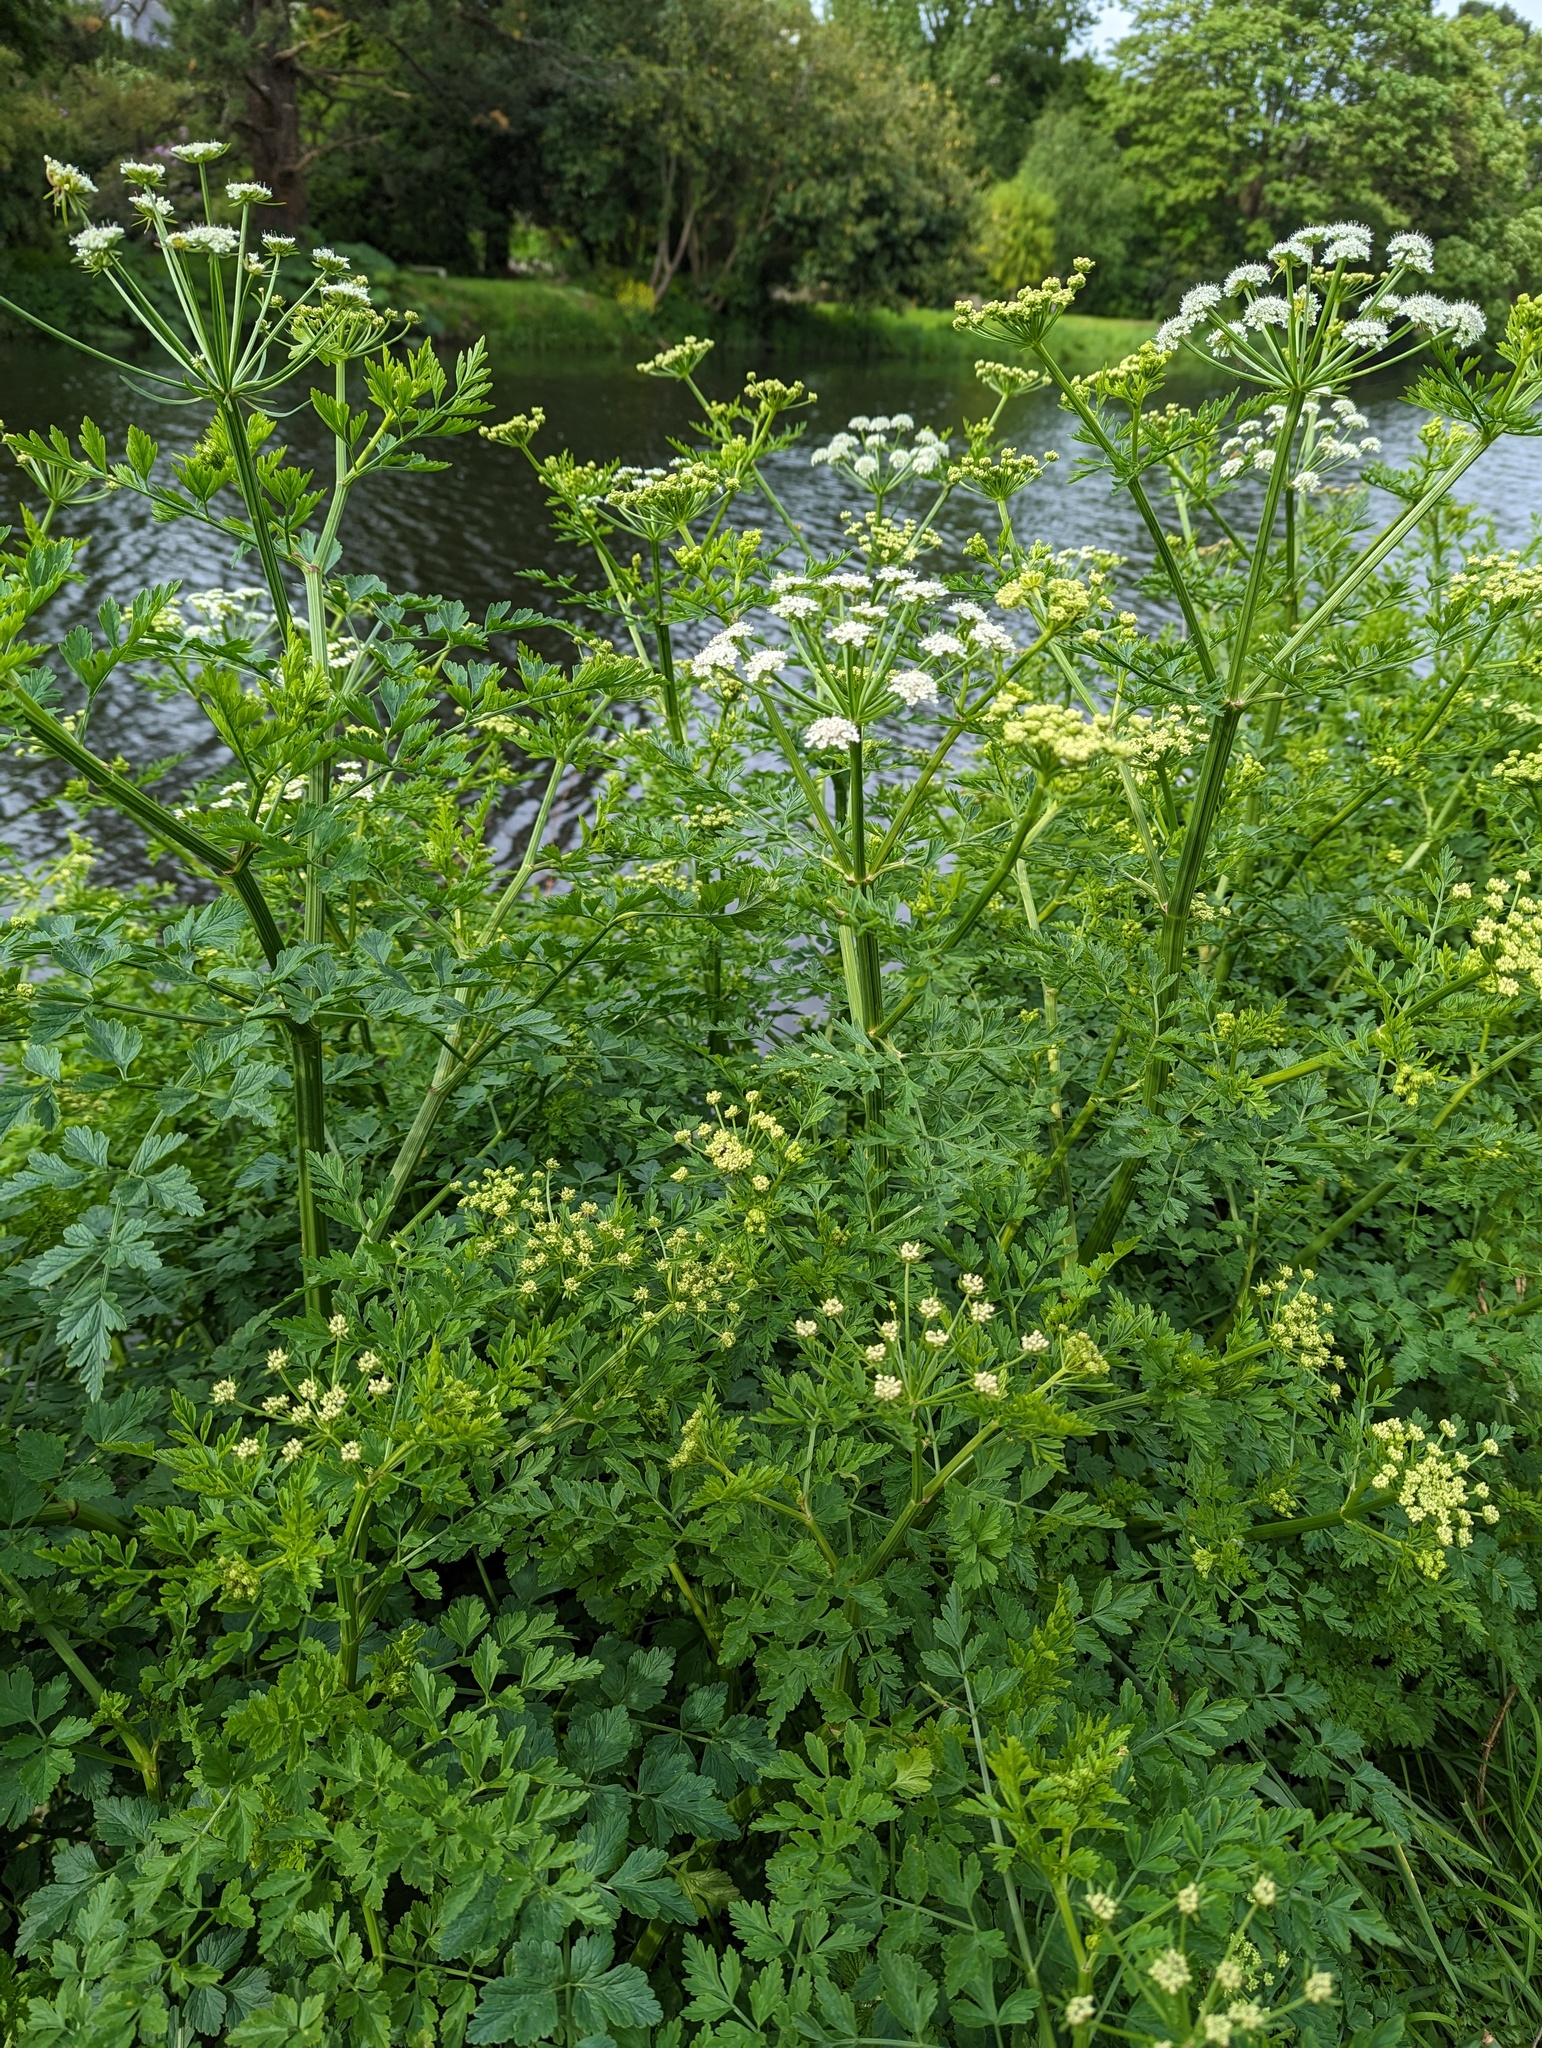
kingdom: Plantae
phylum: Tracheophyta
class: Magnoliopsida
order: Apiales
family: Apiaceae
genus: Oenanthe
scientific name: Oenanthe crocata
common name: Hemlock water-dropwort
